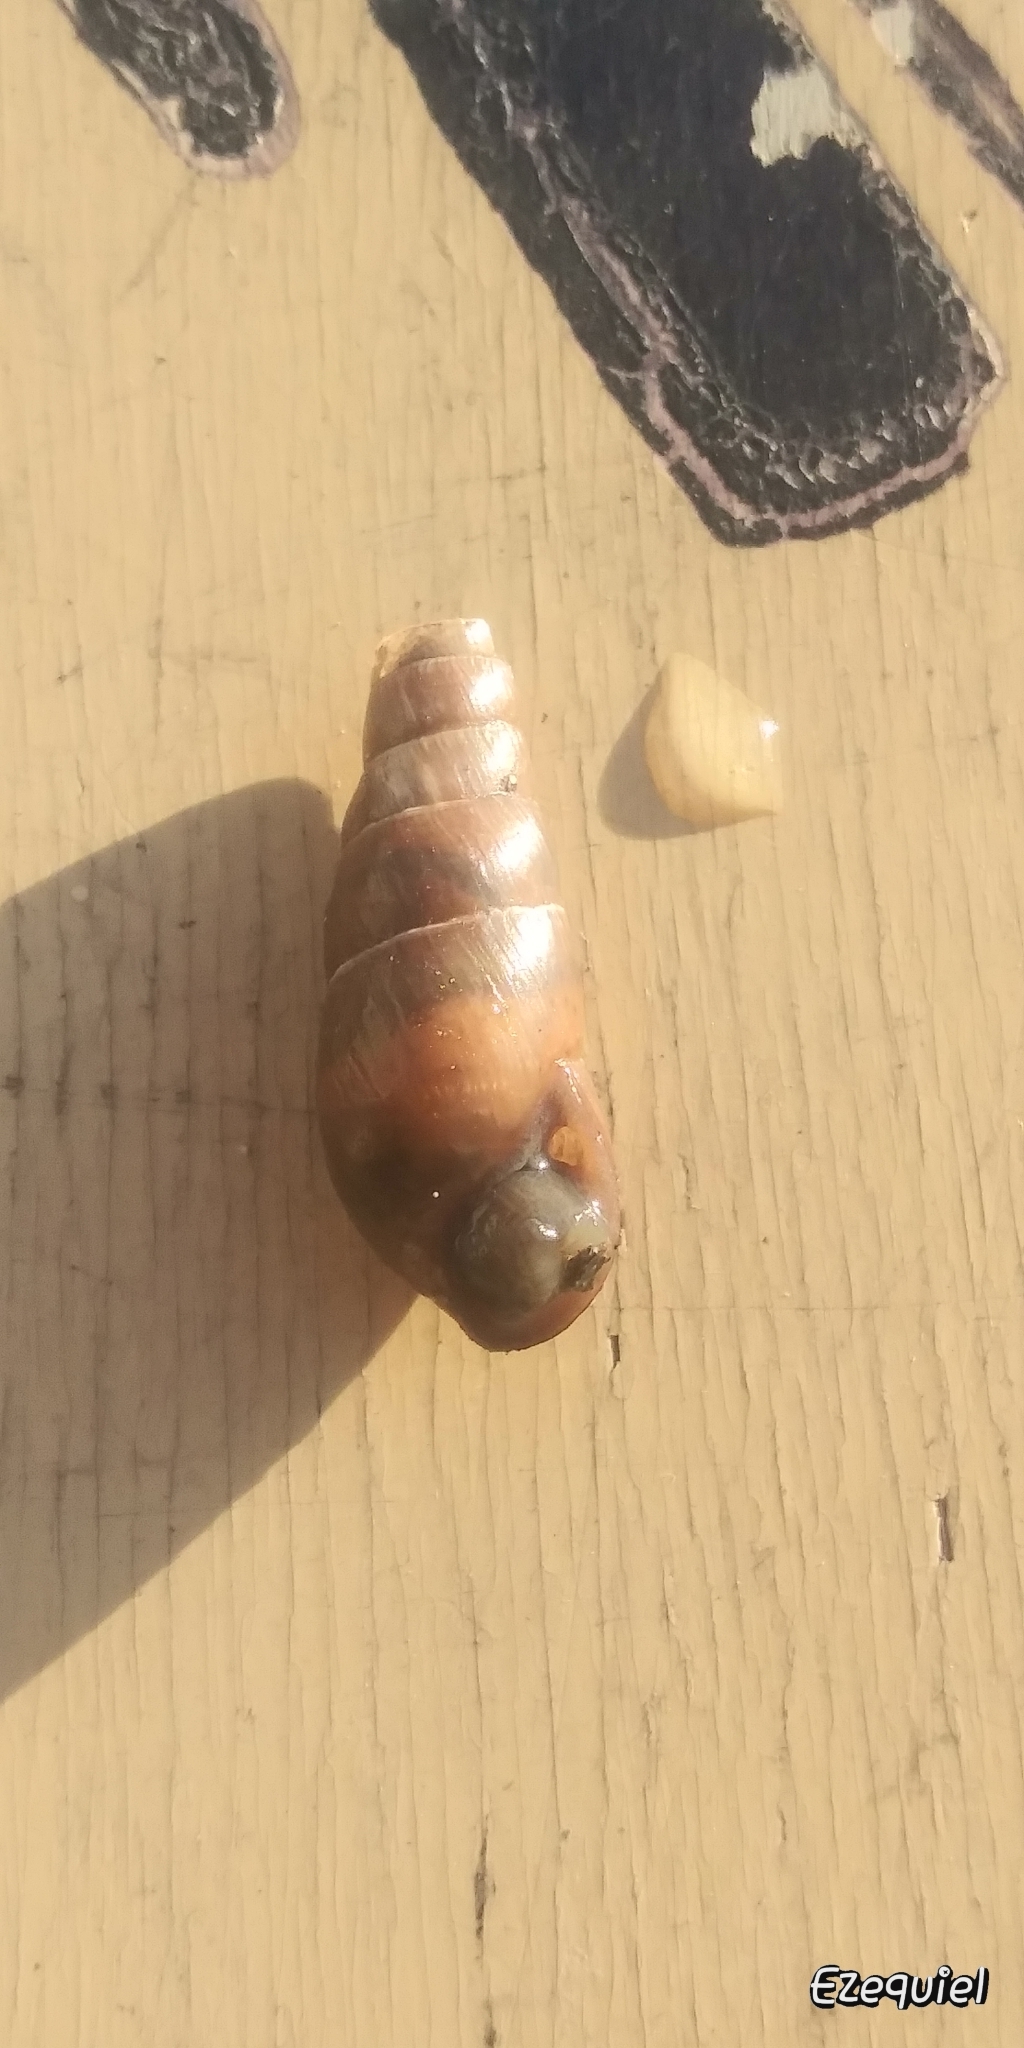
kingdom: Animalia
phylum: Mollusca
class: Gastropoda
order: Stylommatophora
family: Achatinidae
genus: Rumina
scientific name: Rumina decollata
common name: Decollate snail
